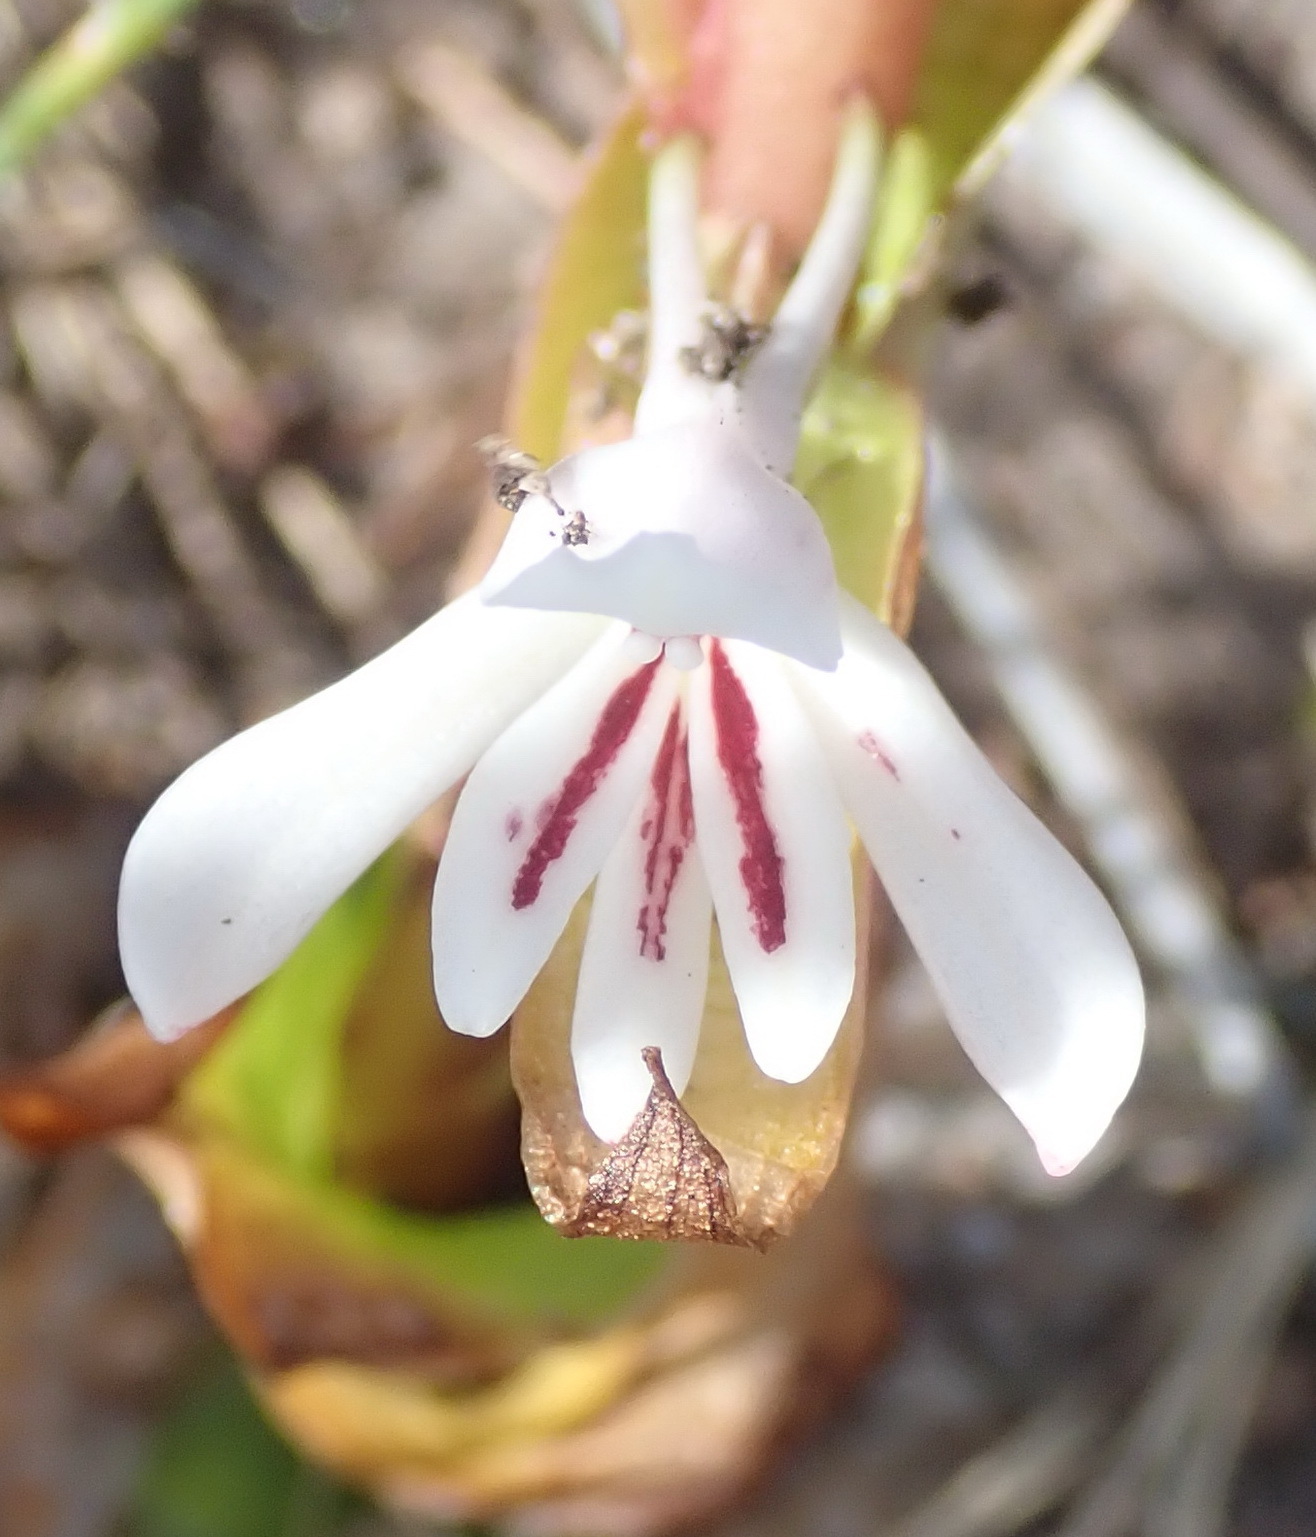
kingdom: Plantae
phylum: Tracheophyta
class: Liliopsida
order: Asparagales
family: Orchidaceae
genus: Satyrium
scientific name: Satyrium longicolle
